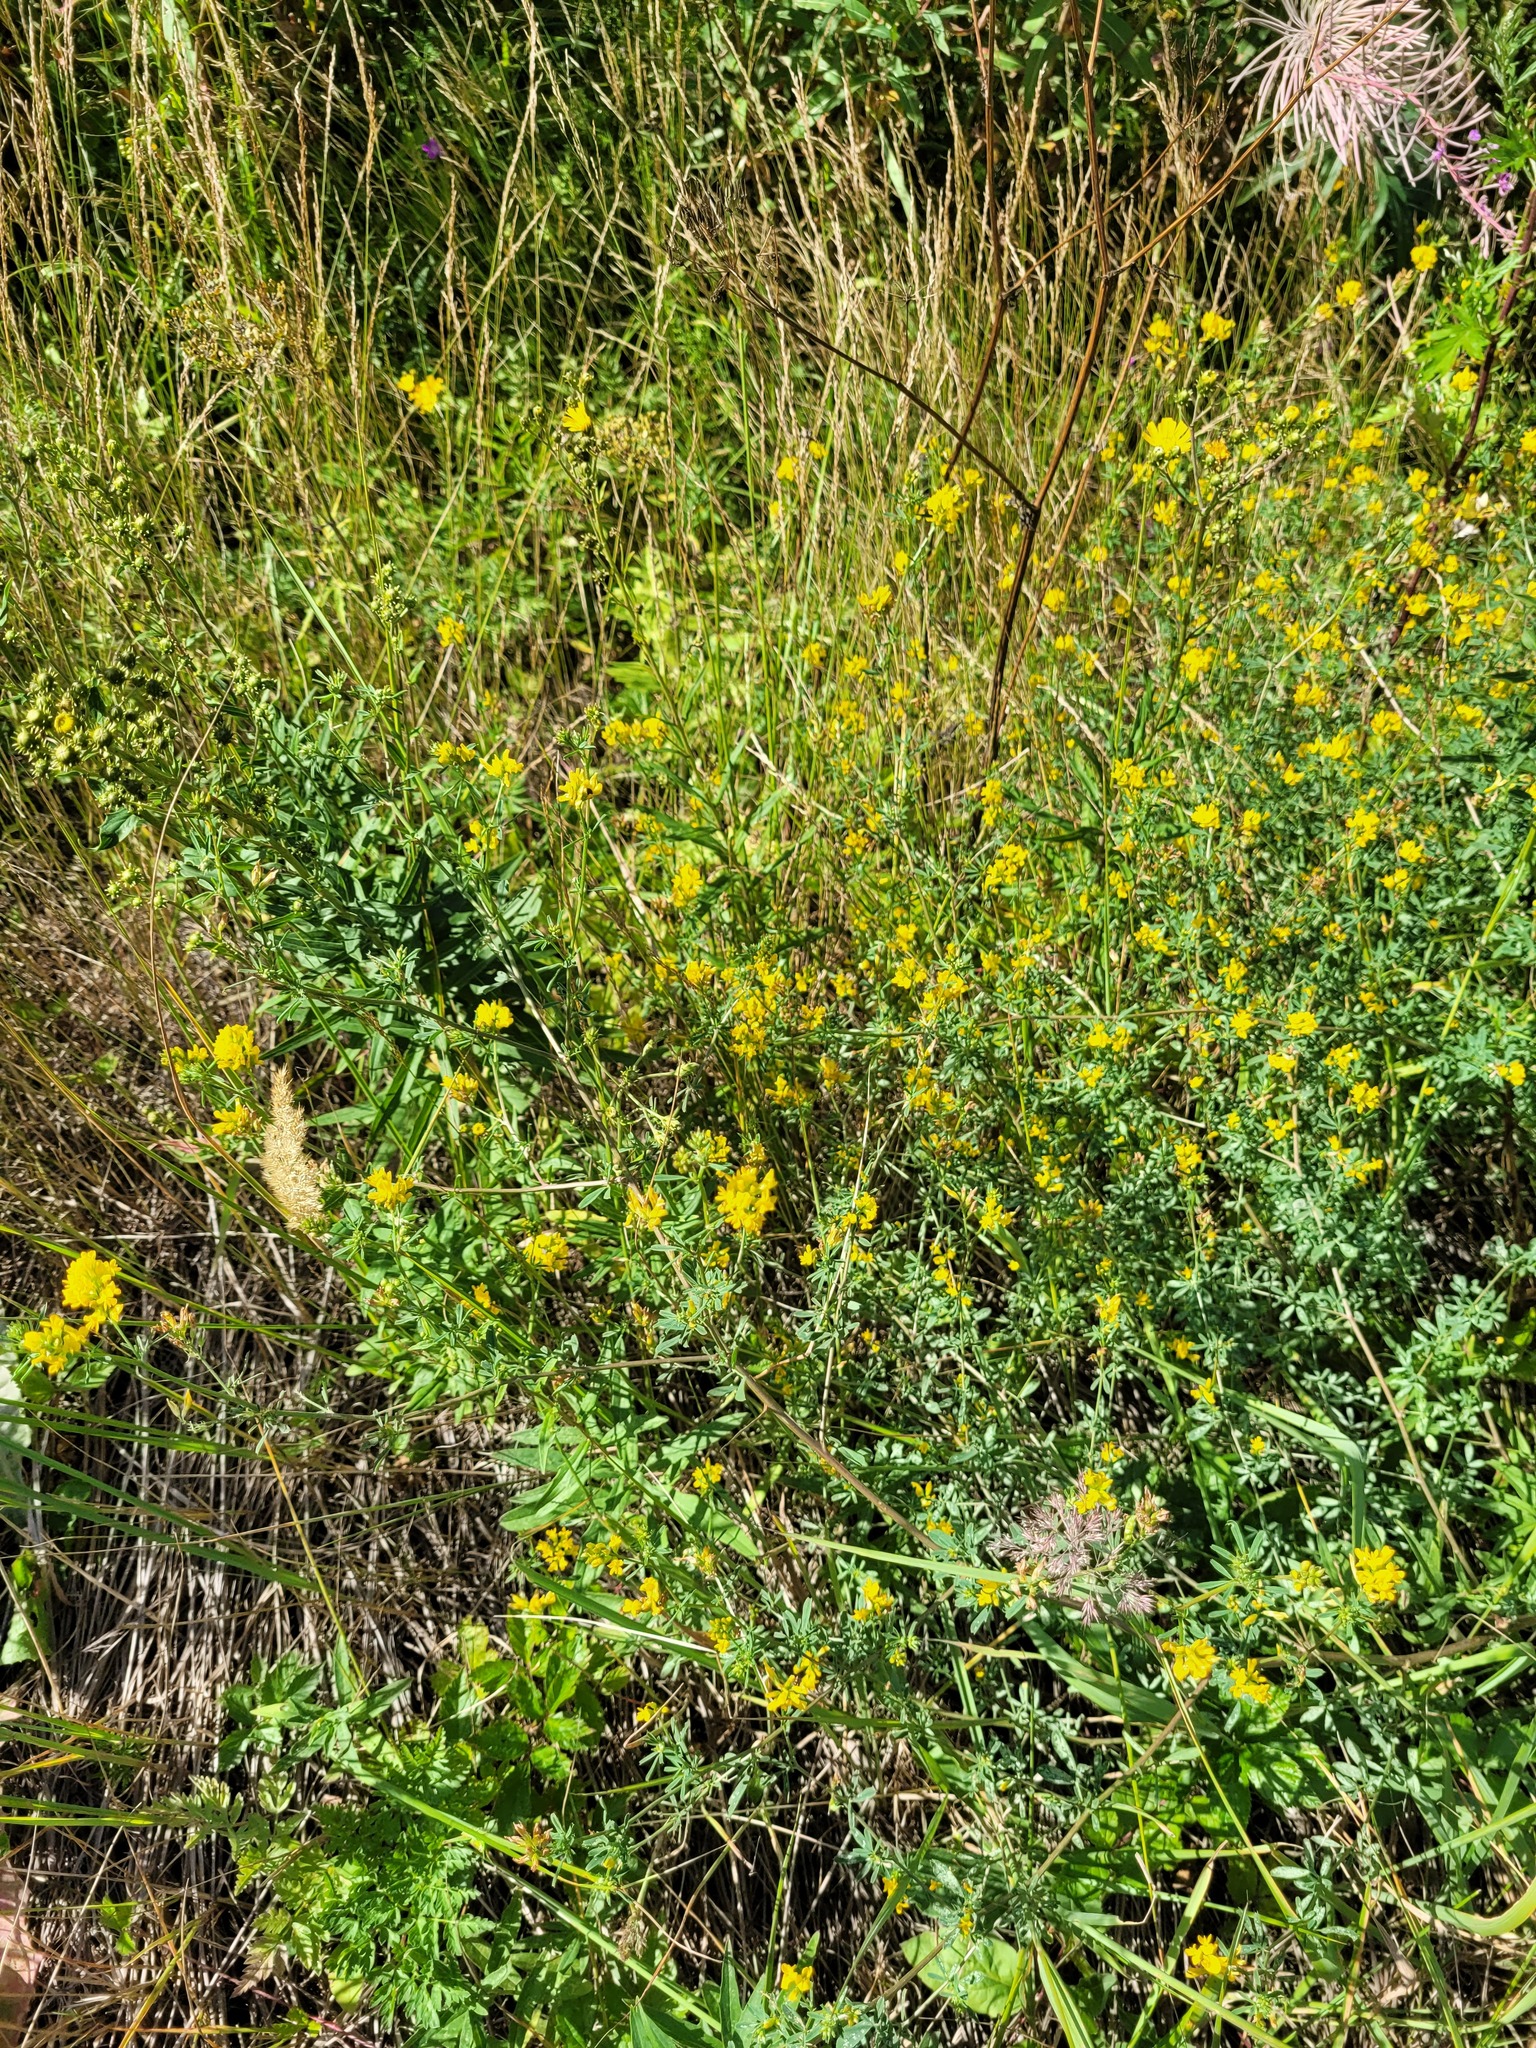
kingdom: Plantae
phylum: Tracheophyta
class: Magnoliopsida
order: Fabales
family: Fabaceae
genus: Medicago
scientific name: Medicago falcata
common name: Sickle medick
